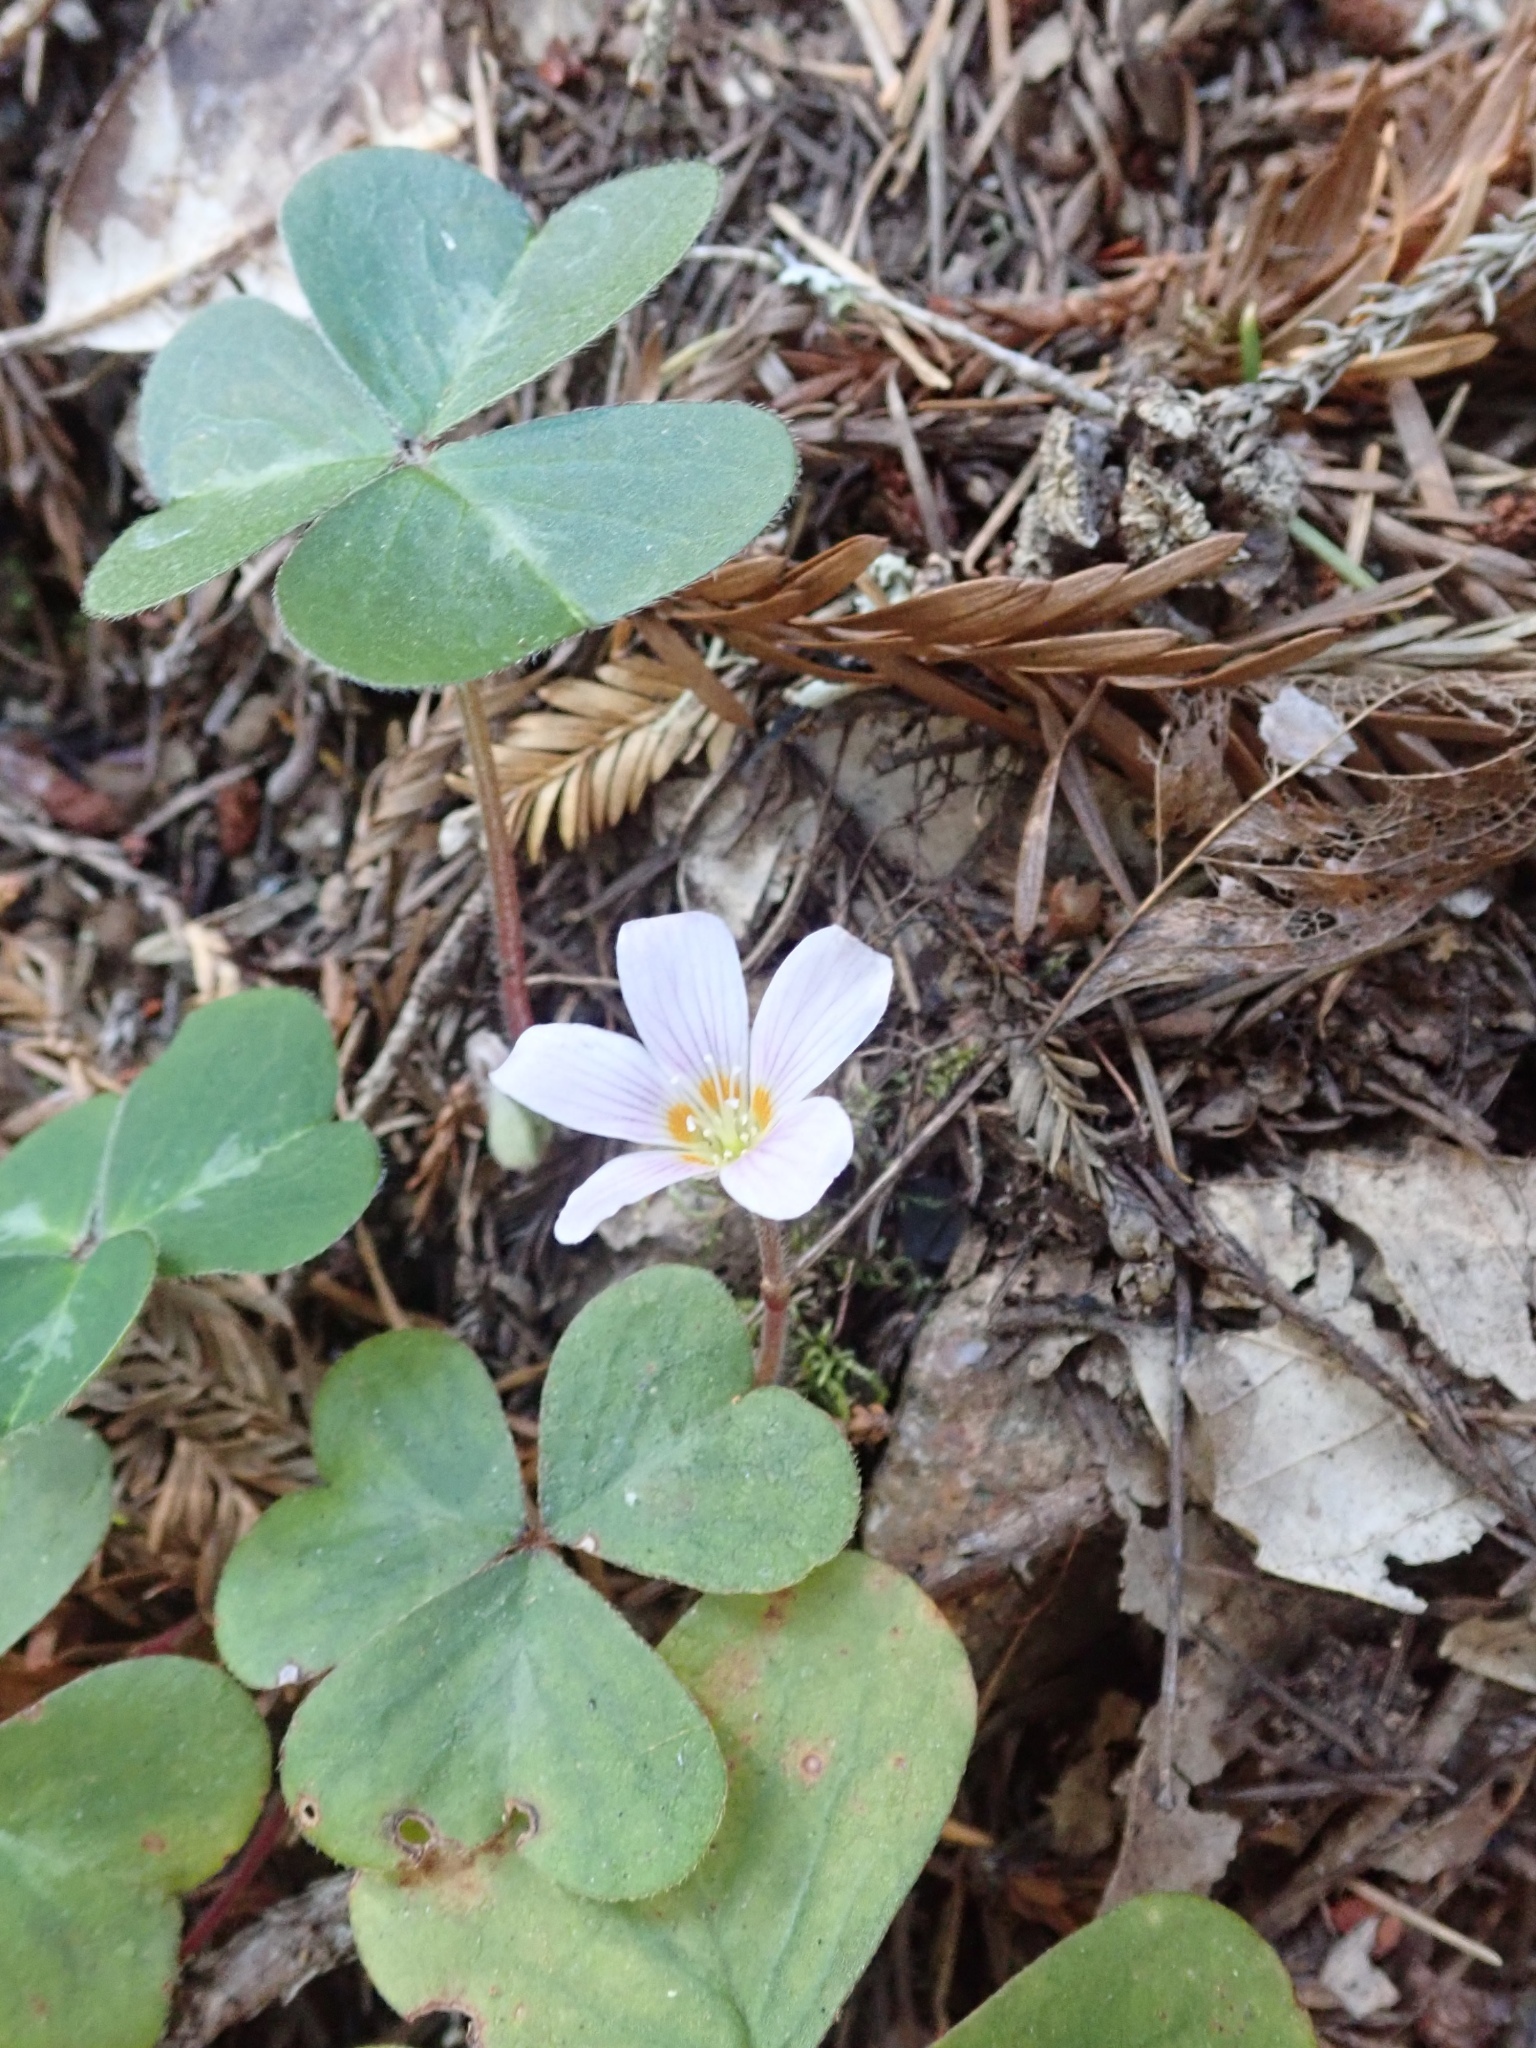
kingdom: Plantae
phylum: Tracheophyta
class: Magnoliopsida
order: Oxalidales
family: Oxalidaceae
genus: Oxalis
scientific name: Oxalis oregana
